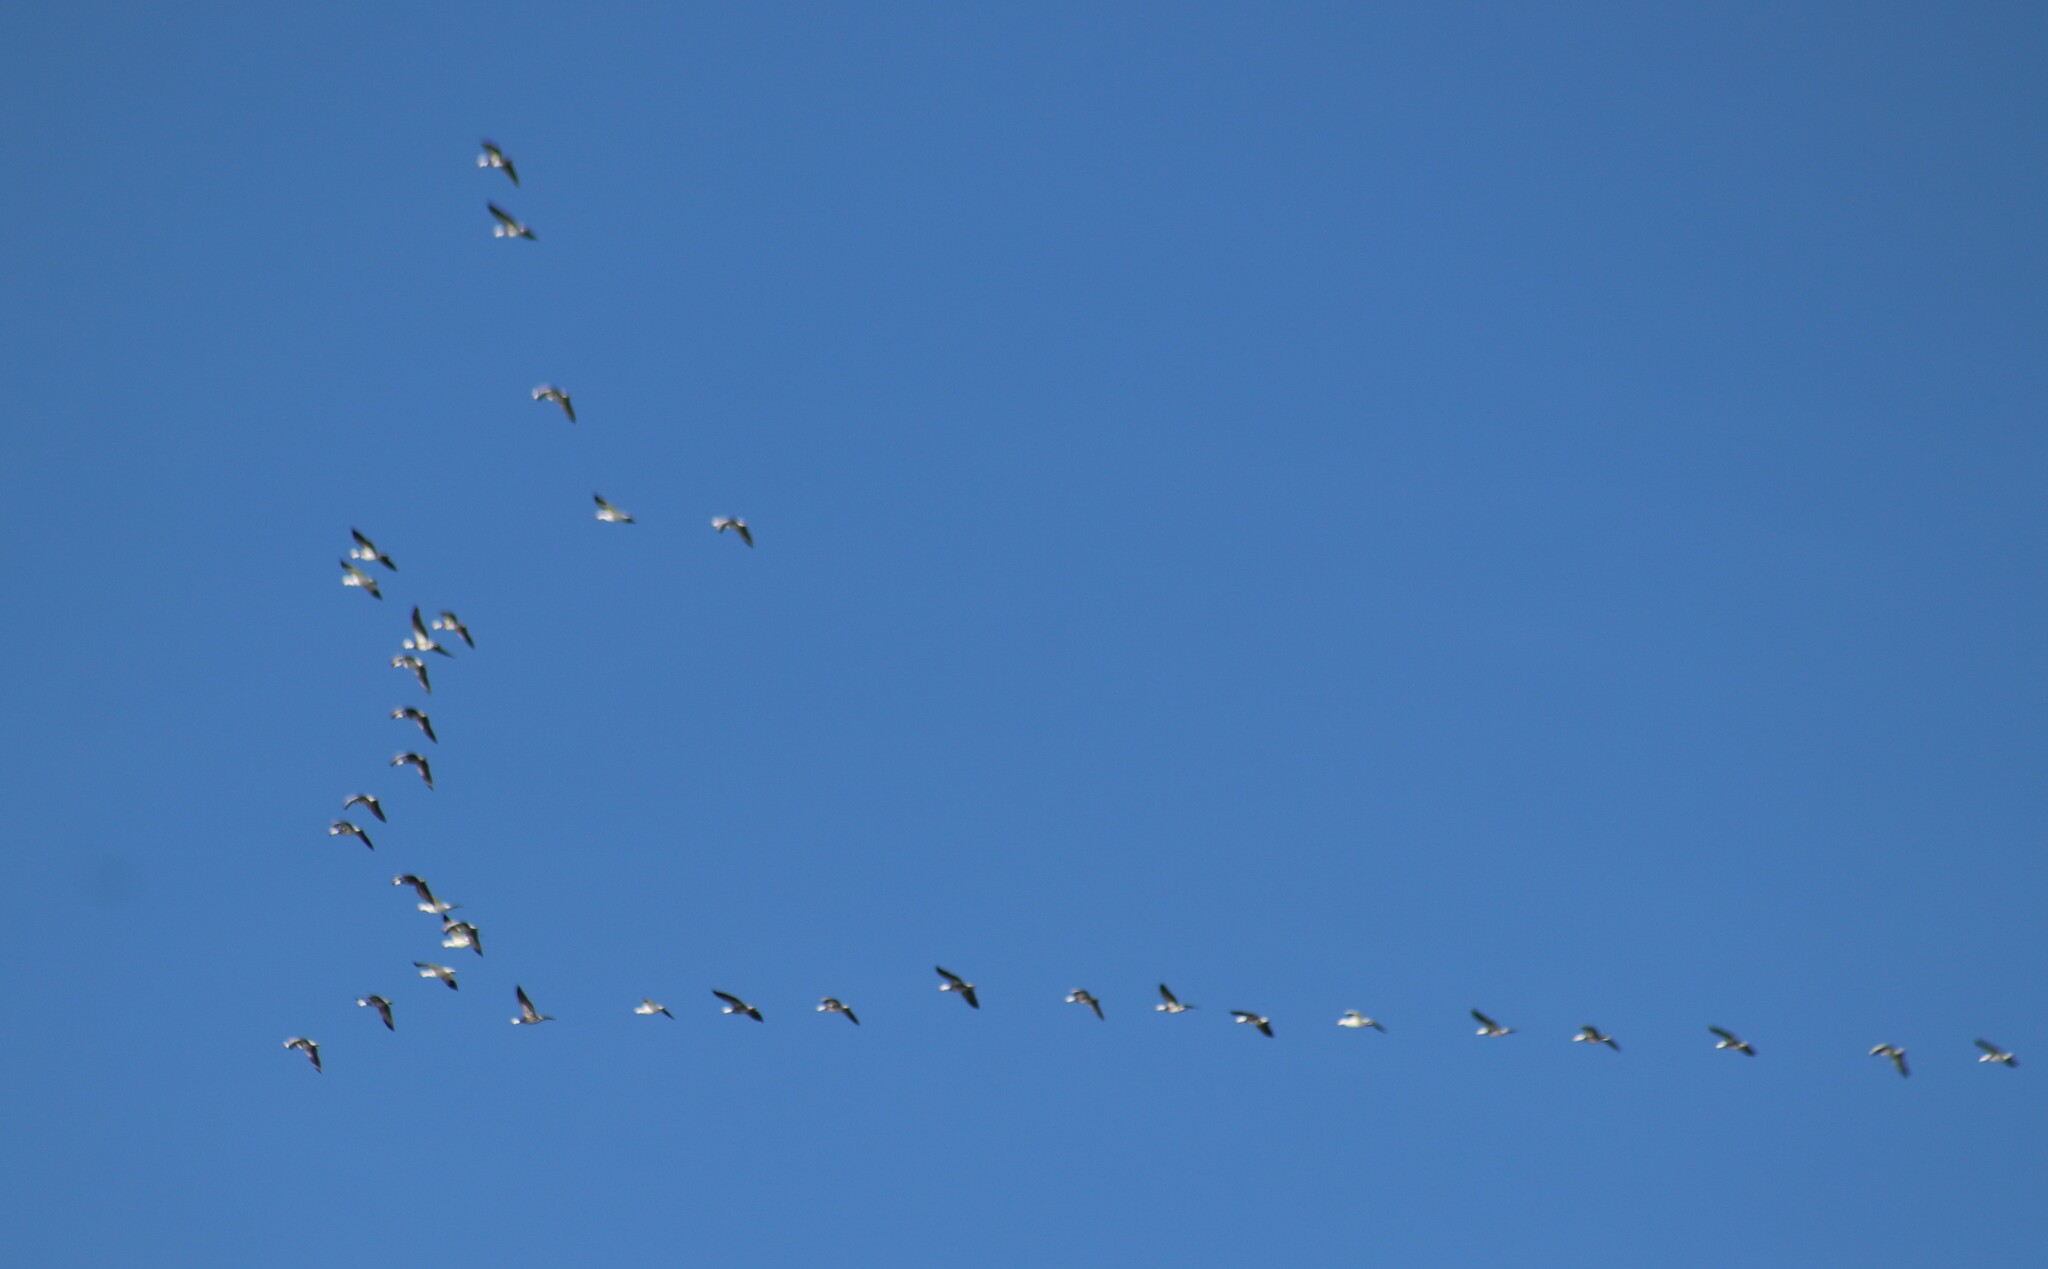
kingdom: Animalia
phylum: Chordata
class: Aves
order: Anseriformes
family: Anatidae
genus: Anser
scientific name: Anser caerulescens
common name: Snow goose
